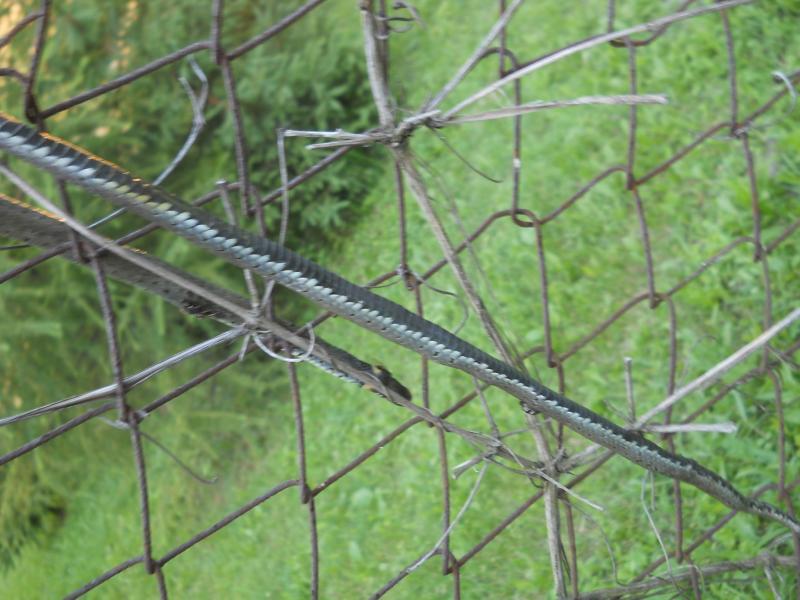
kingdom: Animalia
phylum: Chordata
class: Squamata
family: Colubridae
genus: Natrix
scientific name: Natrix natrix
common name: Grass snake
